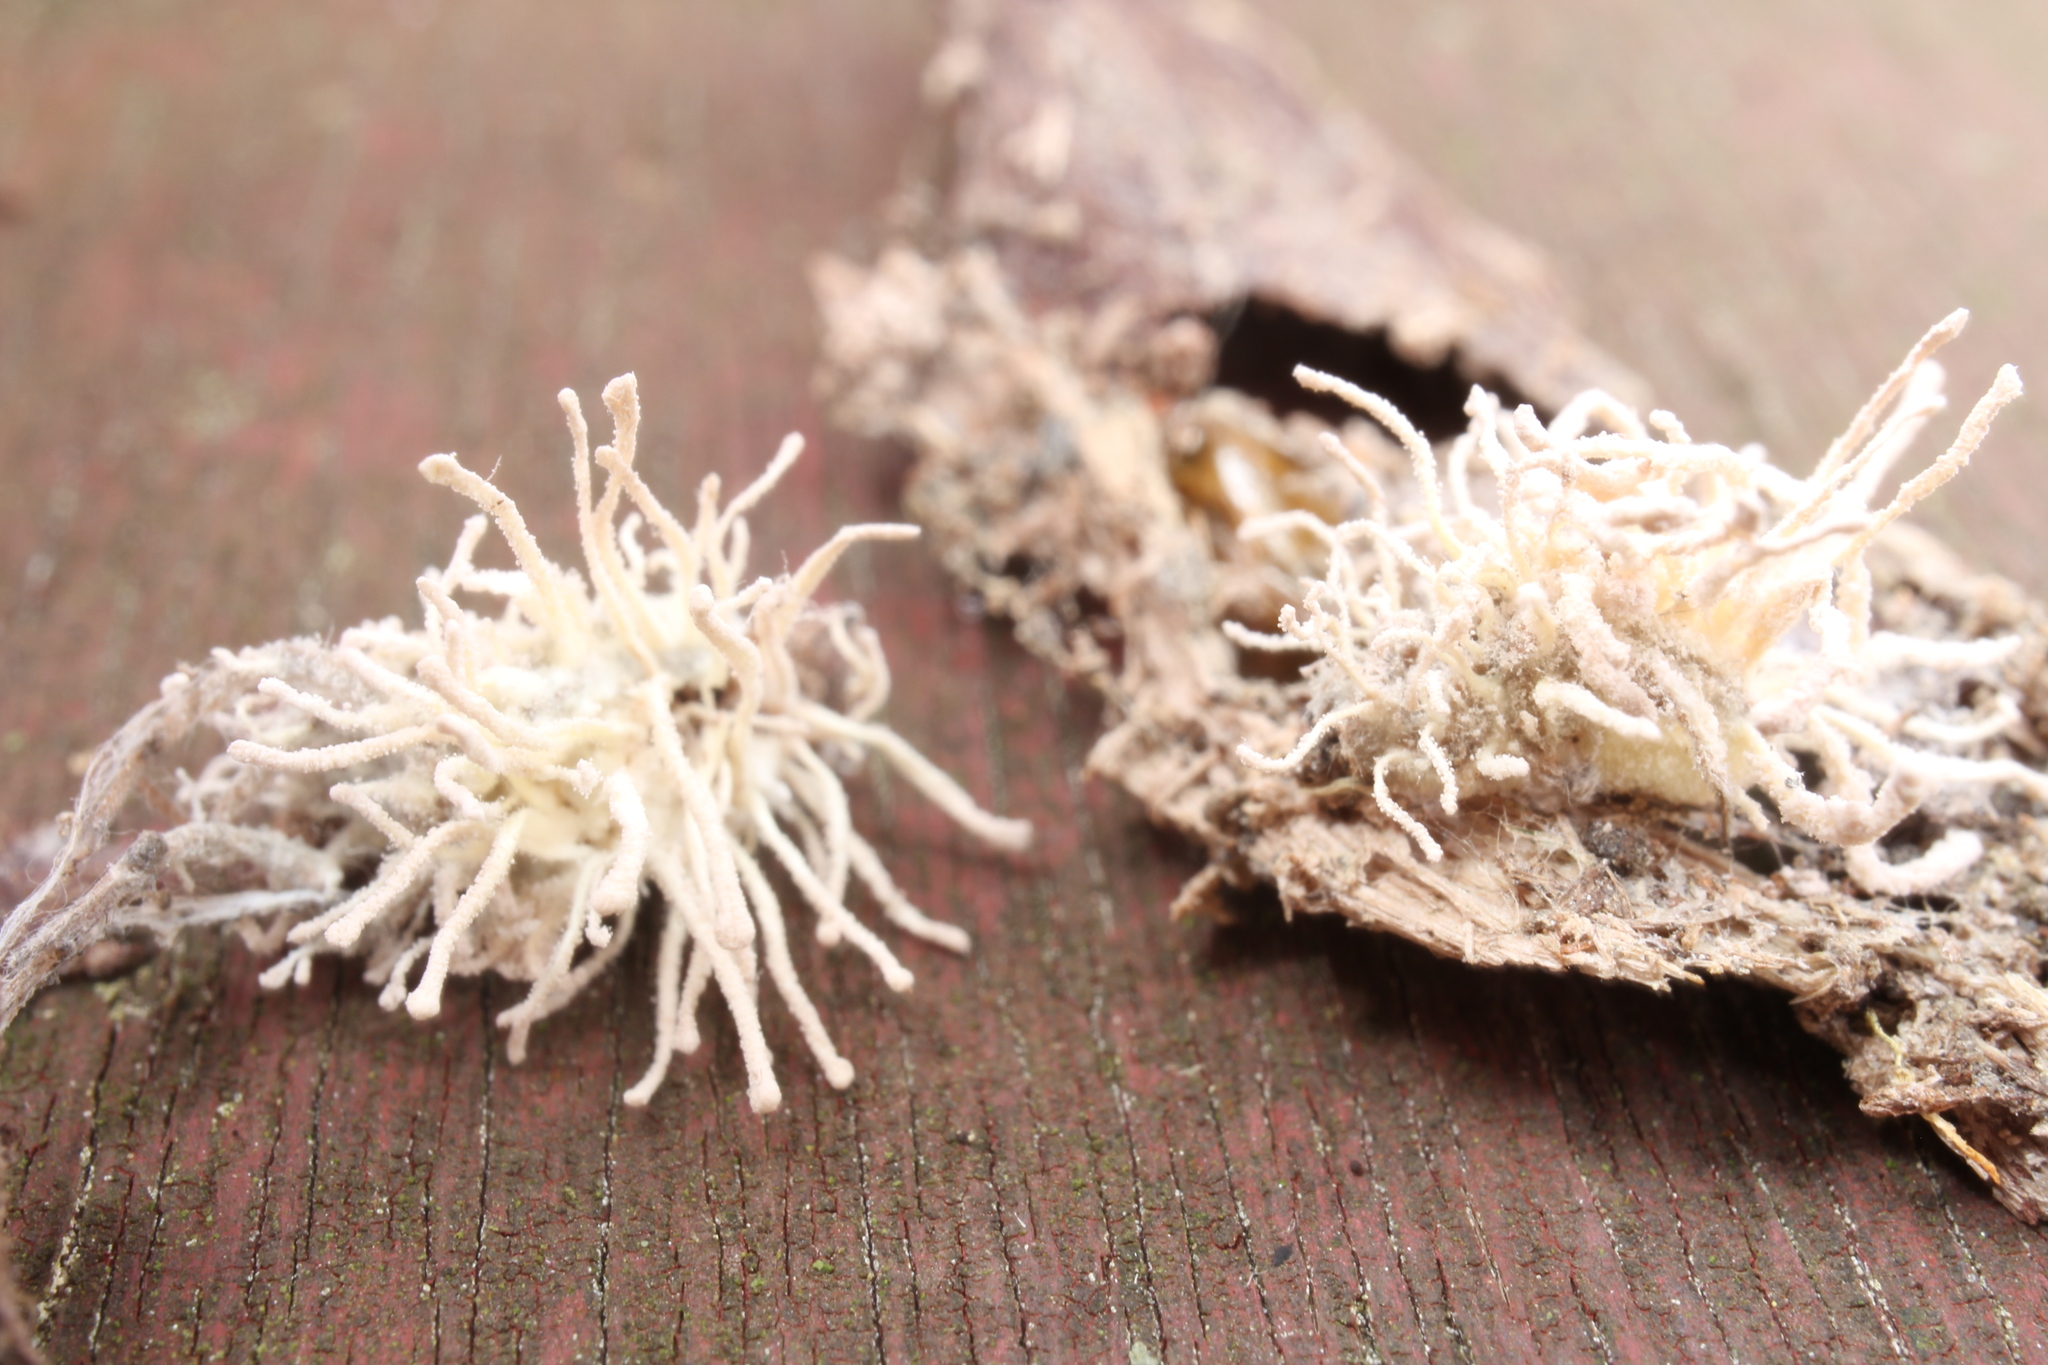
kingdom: Fungi
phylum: Ascomycota
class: Sordariomycetes
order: Hypocreales
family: Cordycipitaceae
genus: Gibellula
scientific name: Gibellula arachnophila
